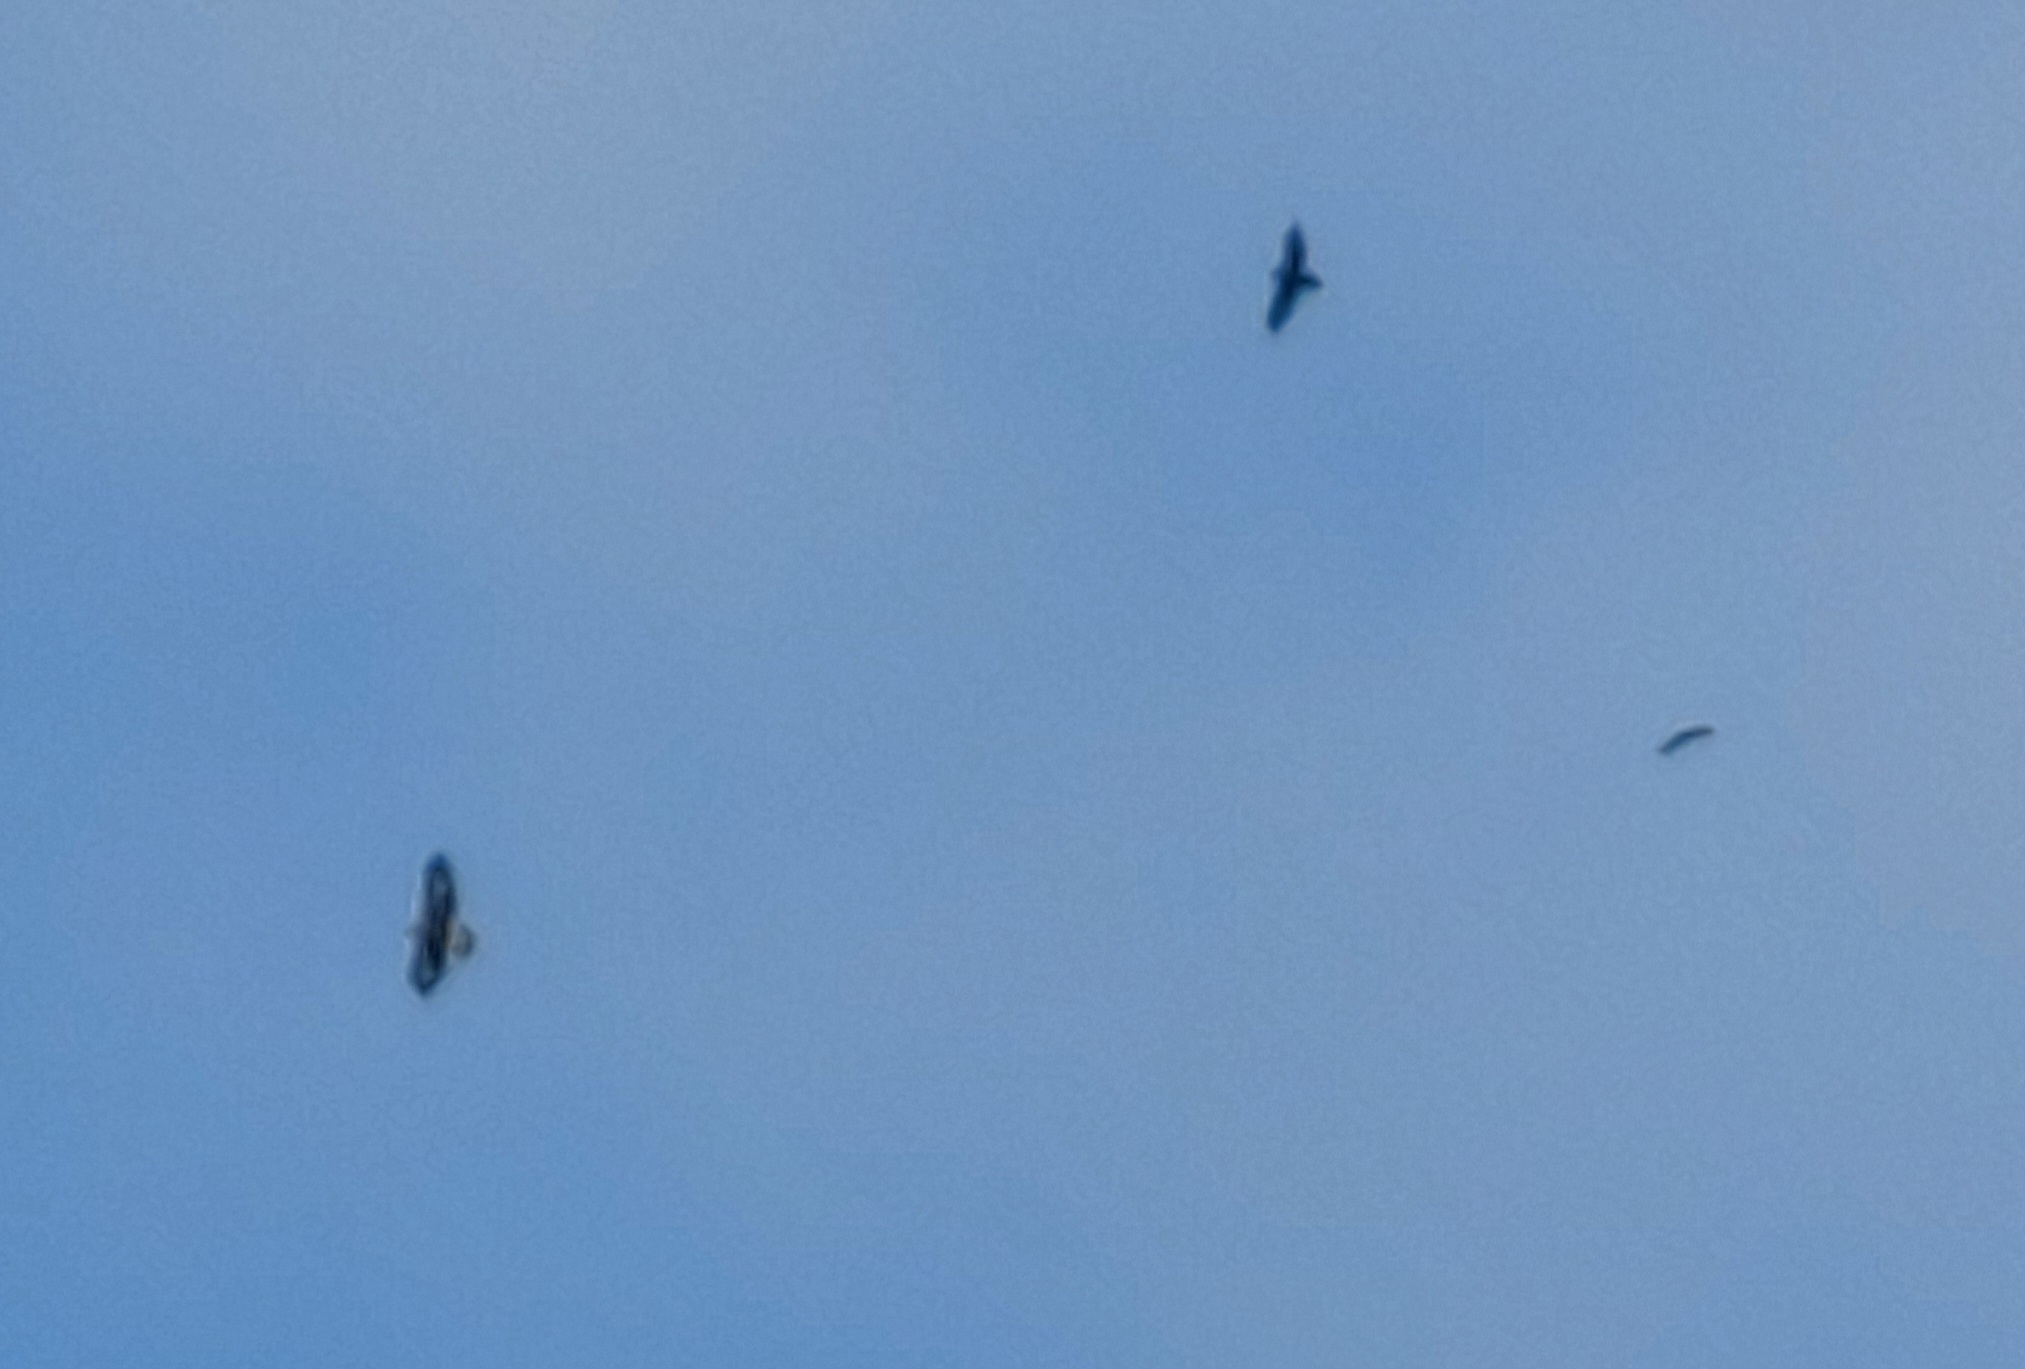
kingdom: Animalia
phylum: Chordata
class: Aves
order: Accipitriformes
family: Accipitridae
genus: Aquila
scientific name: Aquila chrysaetos
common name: Golden eagle
